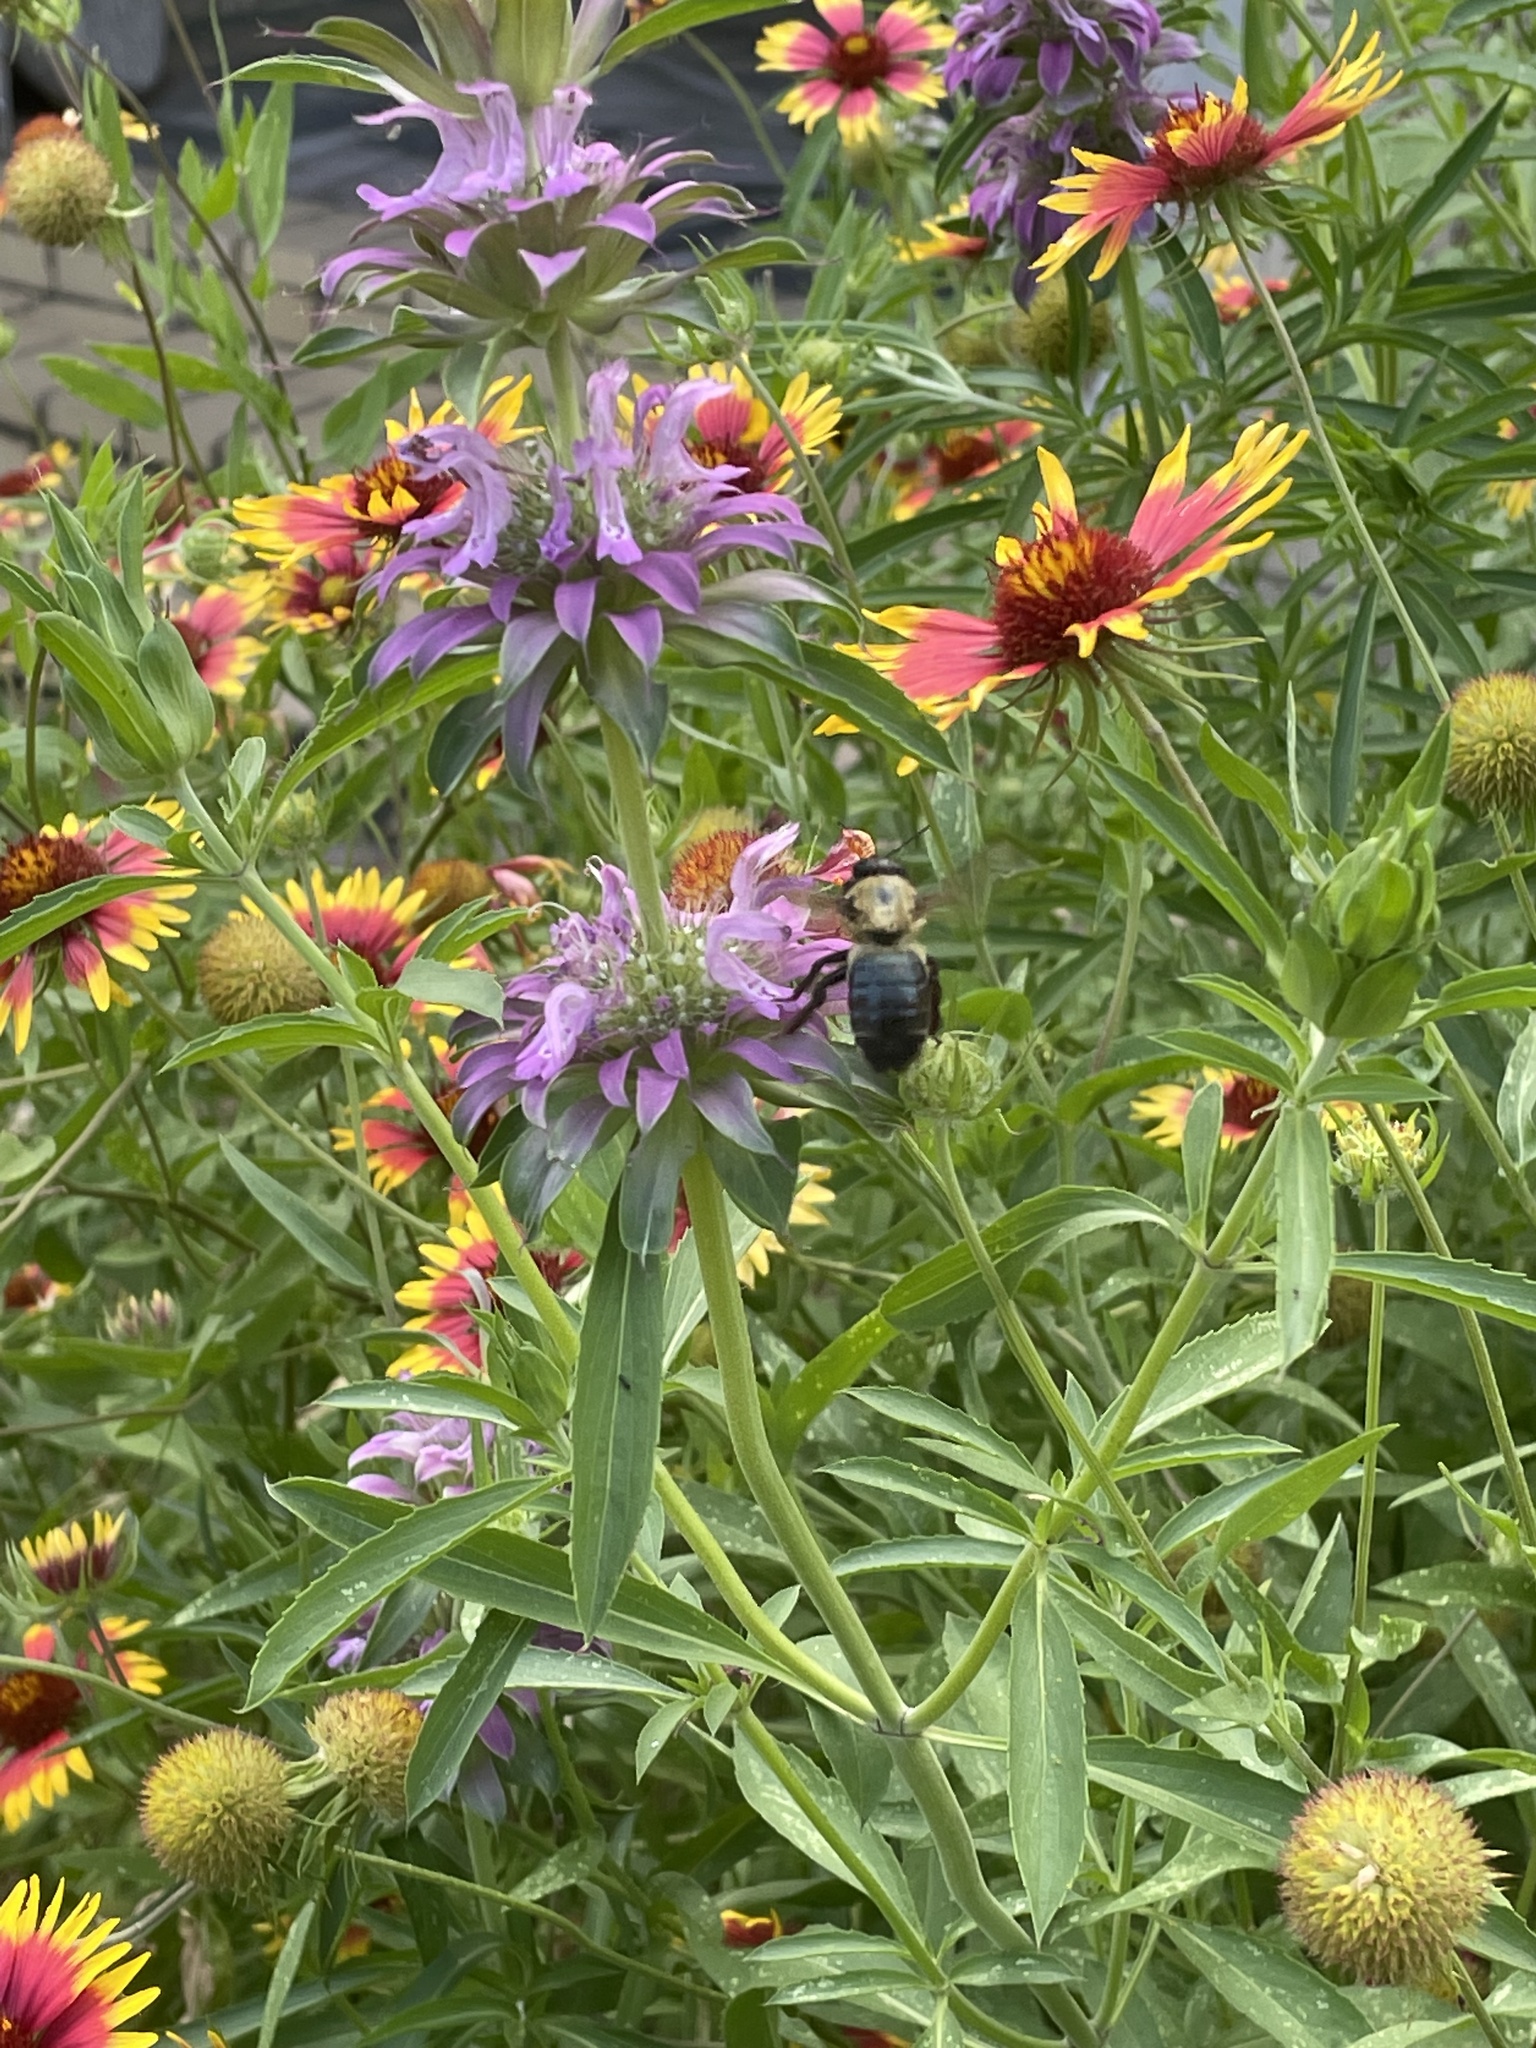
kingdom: Animalia
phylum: Arthropoda
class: Insecta
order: Hymenoptera
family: Apidae
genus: Xylocopa
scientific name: Xylocopa virginica
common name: Carpenter bee
